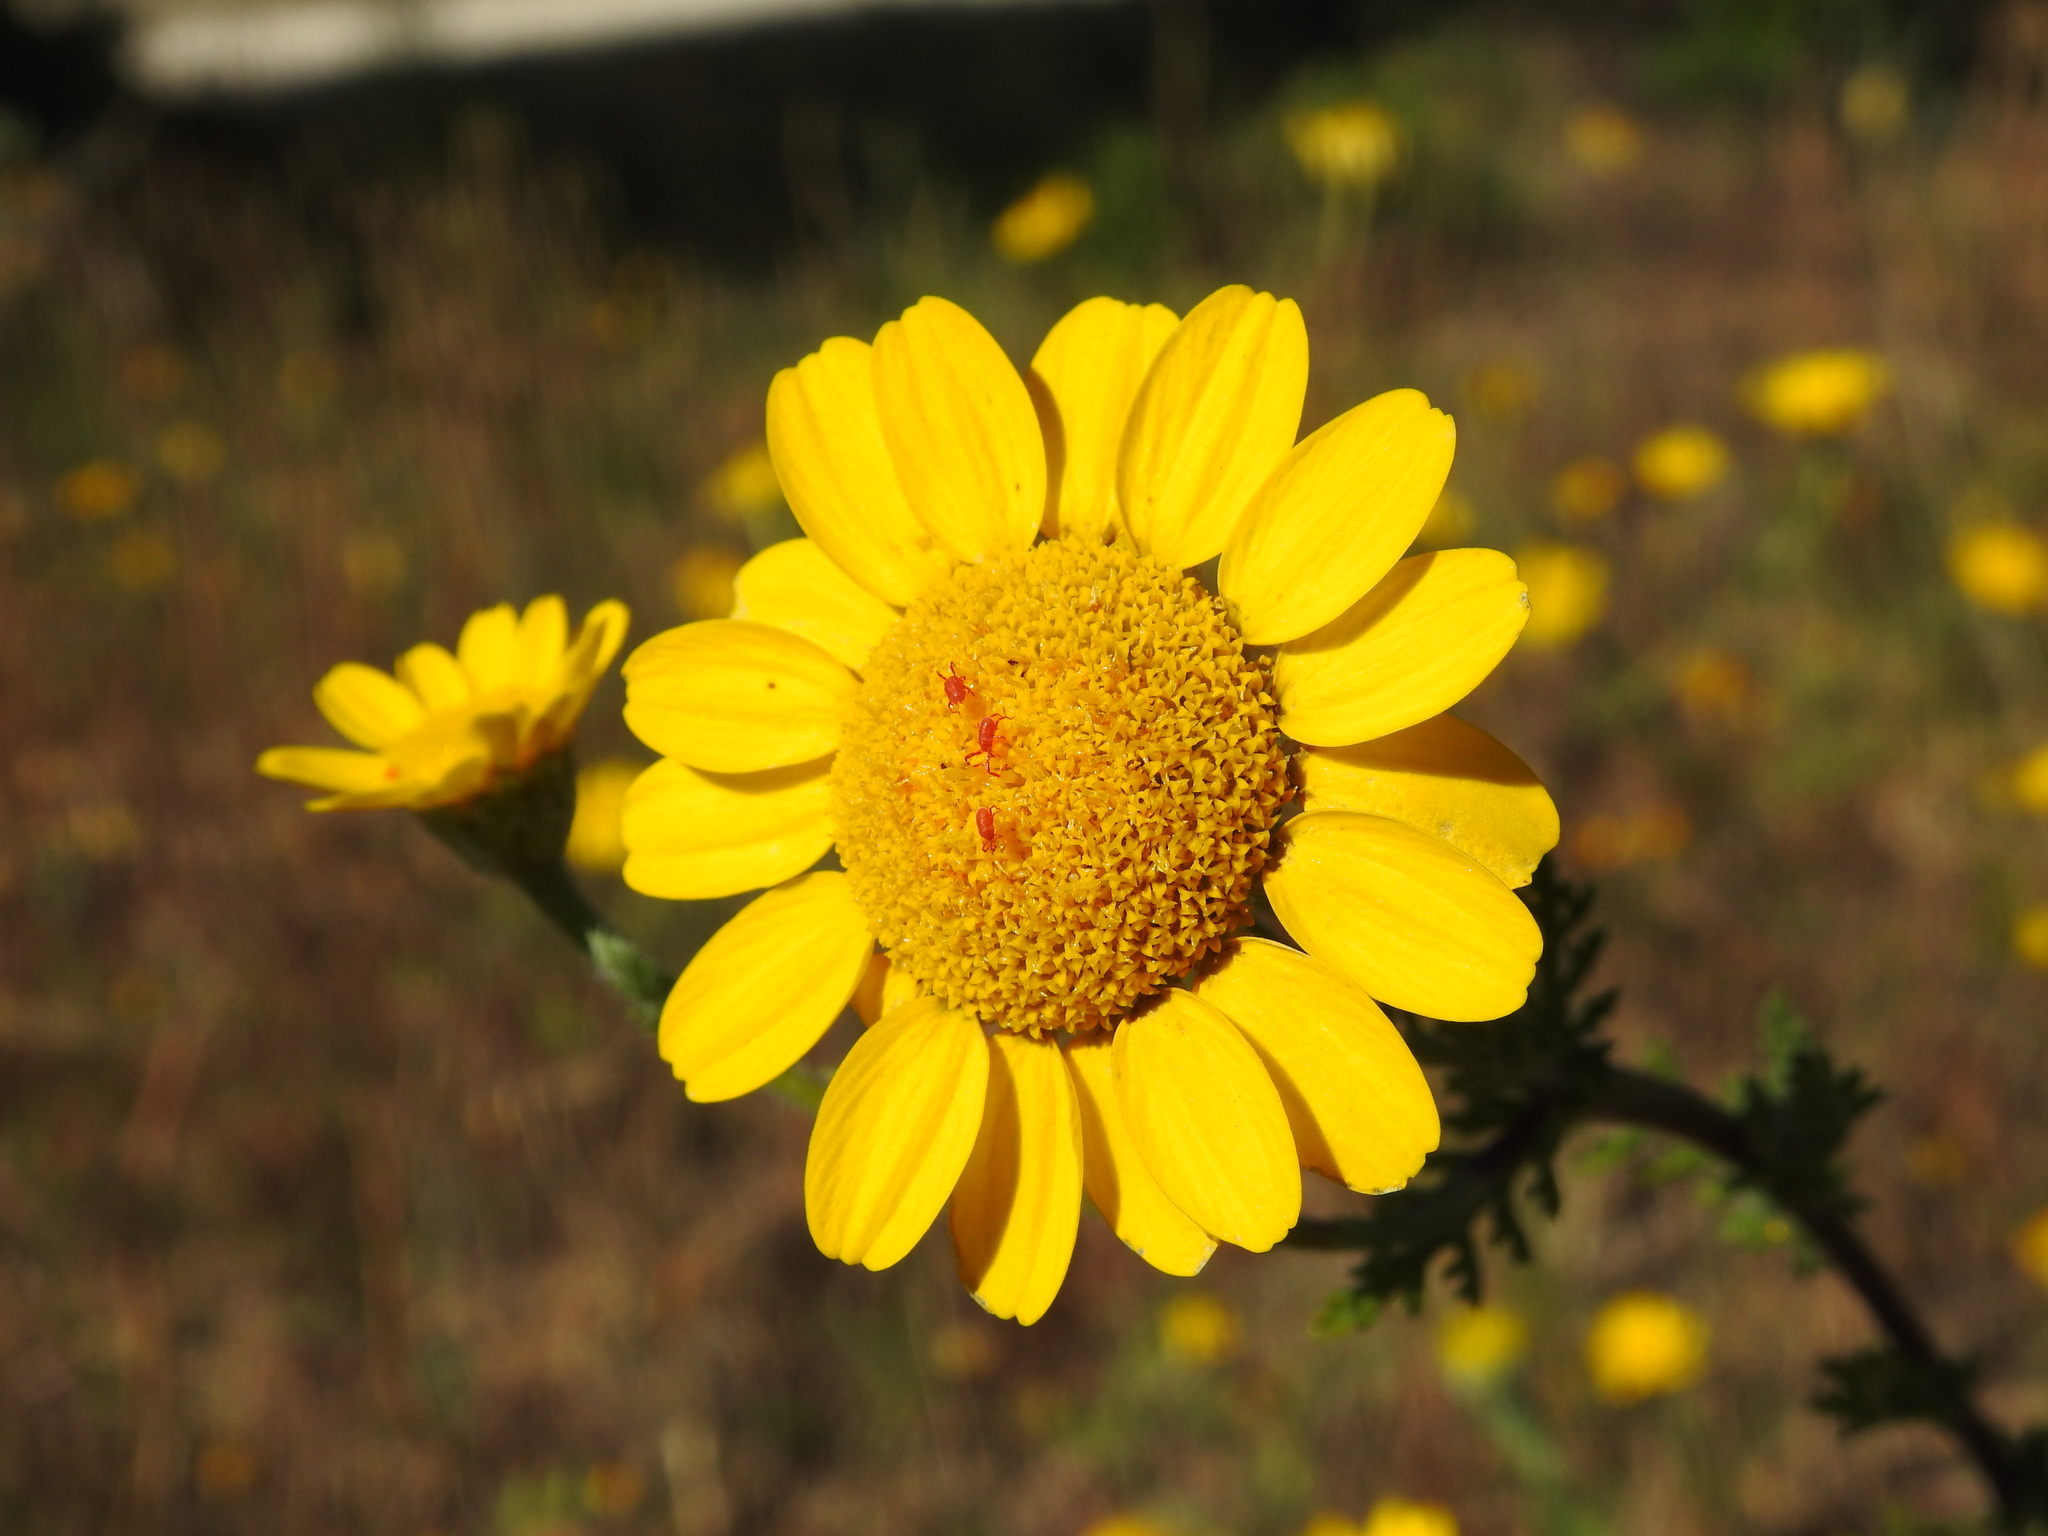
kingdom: Plantae
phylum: Tracheophyta
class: Magnoliopsida
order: Asterales
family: Asteraceae
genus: Anacyclus
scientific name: Anacyclus radiatus
